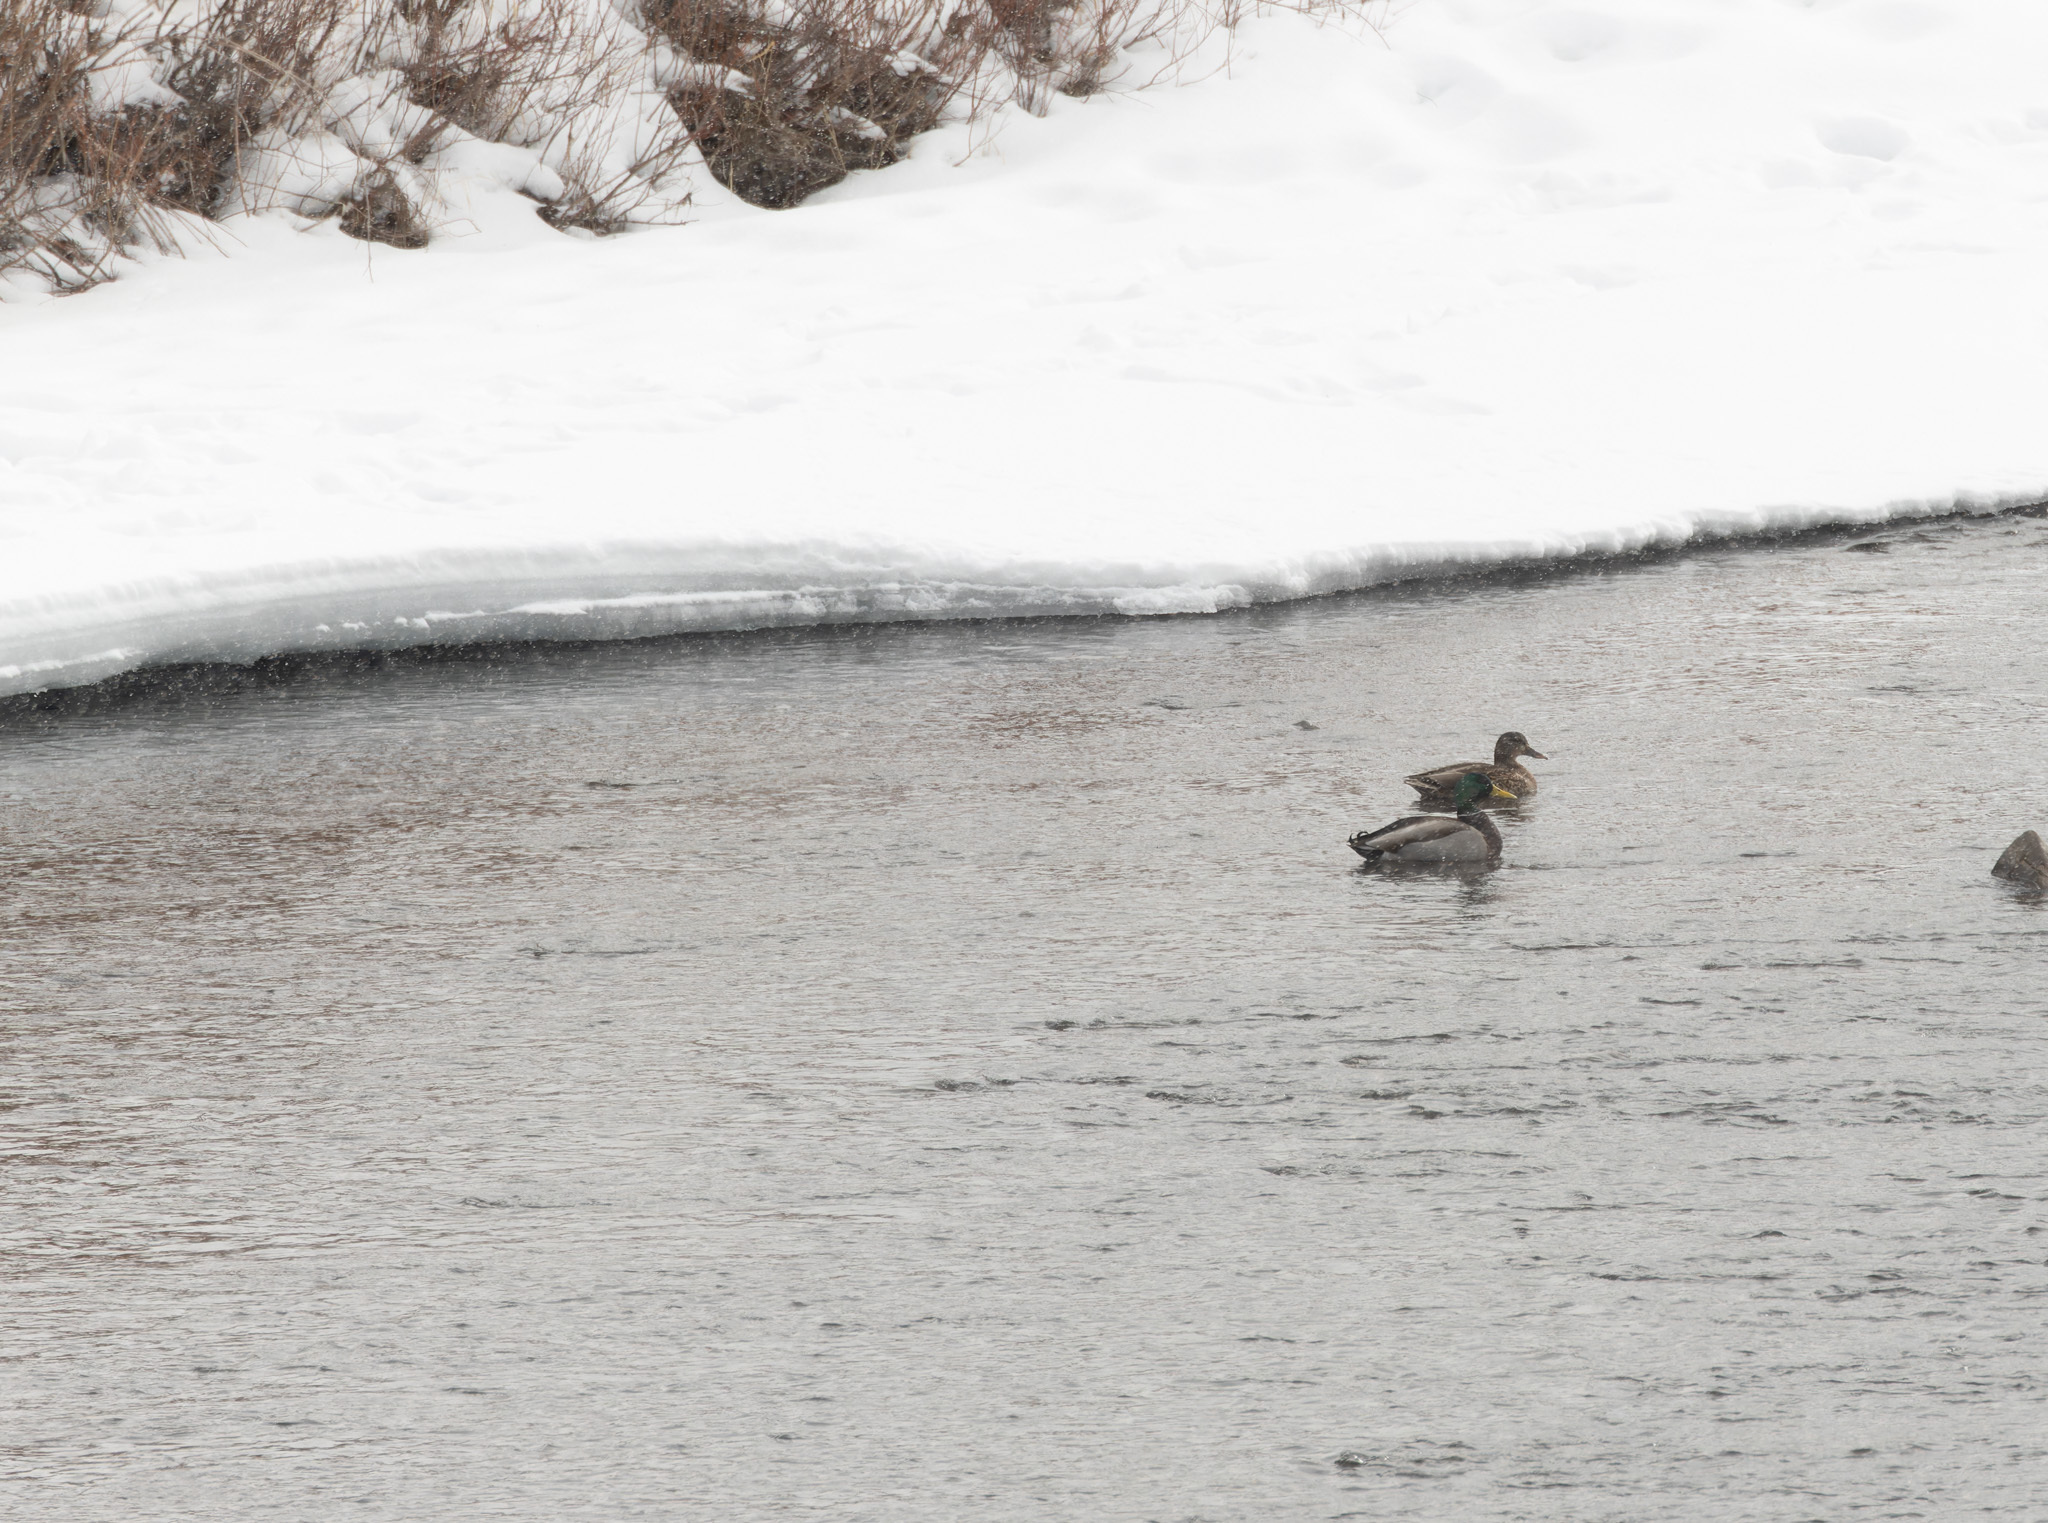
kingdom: Animalia
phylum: Chordata
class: Aves
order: Anseriformes
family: Anatidae
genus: Anas
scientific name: Anas platyrhynchos
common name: Mallard
